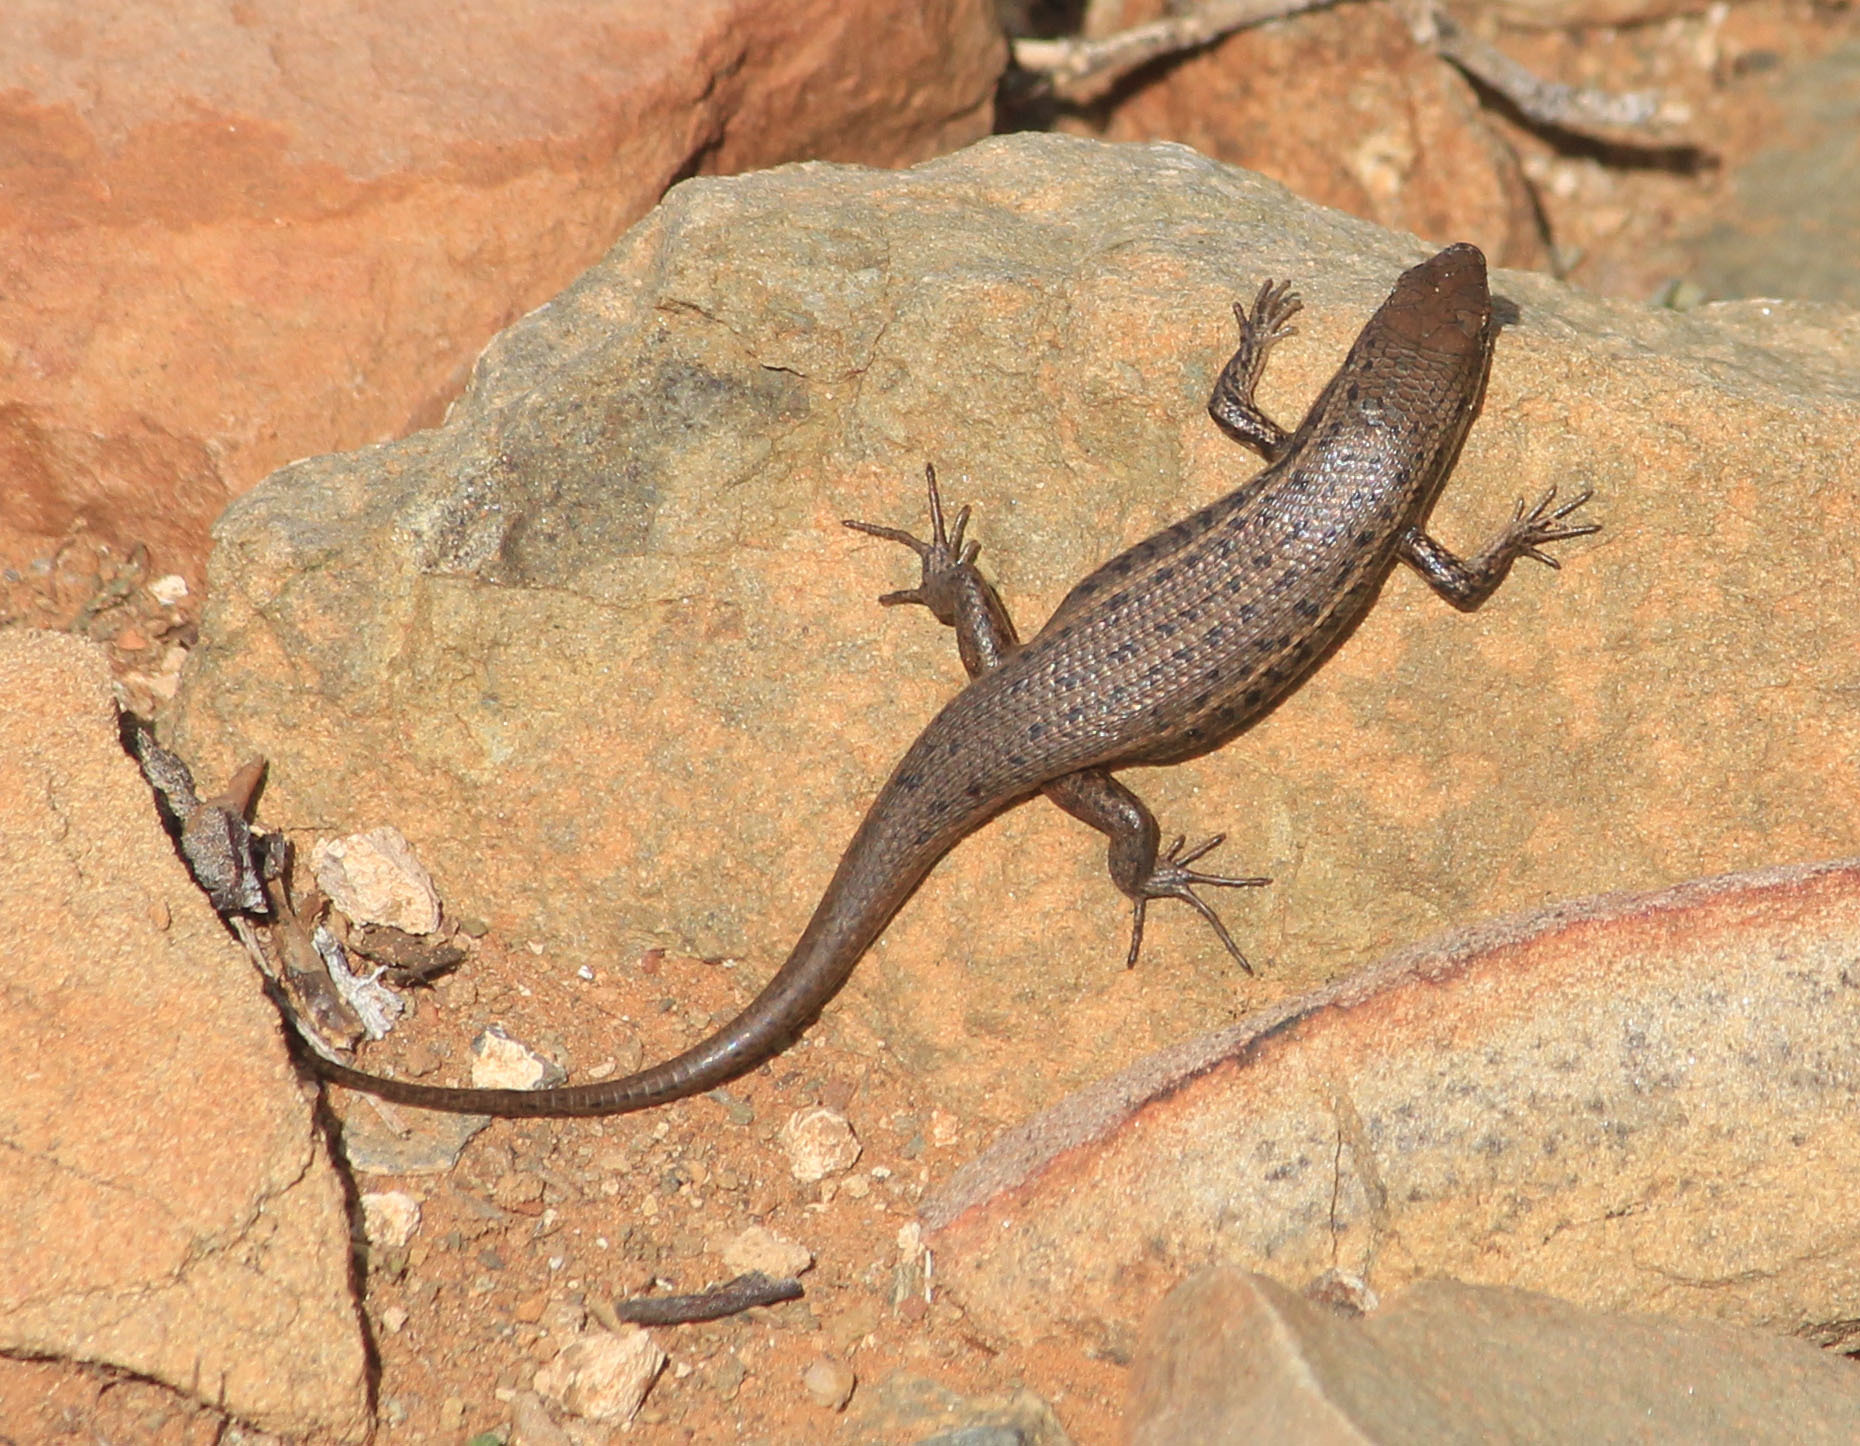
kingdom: Animalia
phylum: Chordata
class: Squamata
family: Scincidae
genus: Trachylepis
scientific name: Trachylepis variegata
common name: Variegated skink
